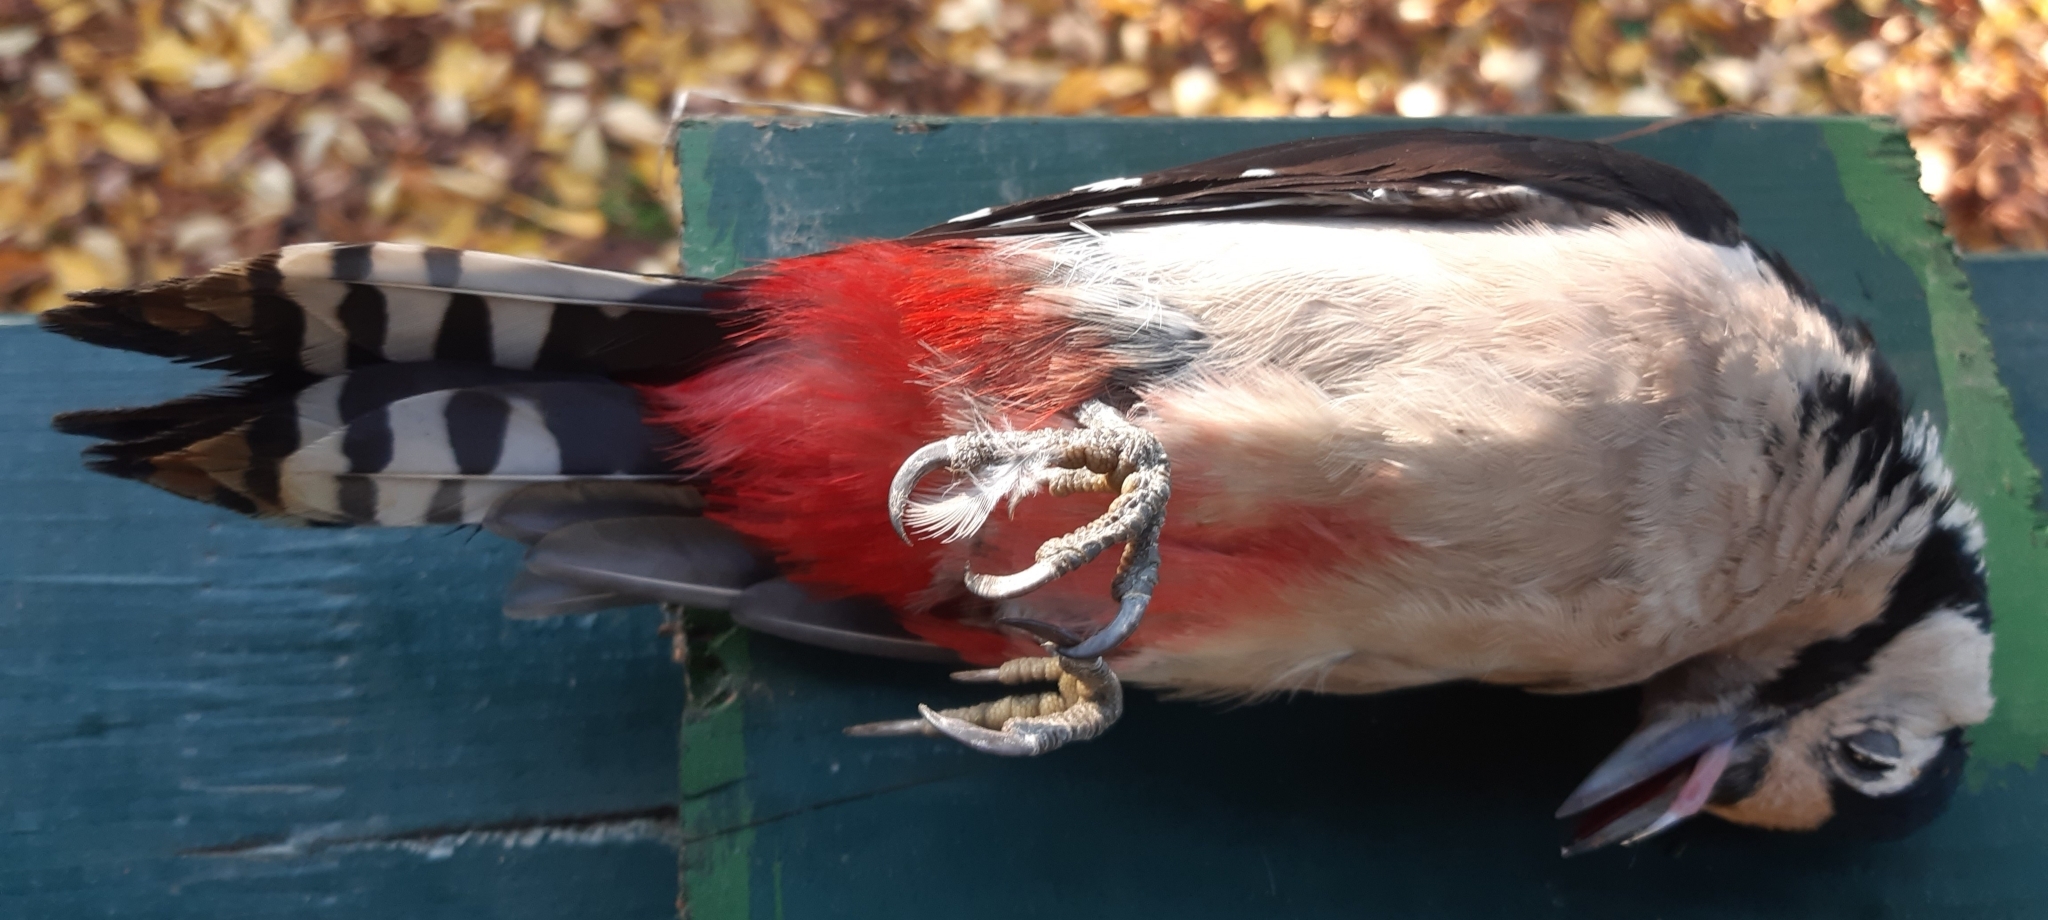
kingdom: Animalia
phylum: Chordata
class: Aves
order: Piciformes
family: Picidae
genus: Dendrocopos
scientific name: Dendrocopos major
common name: Great spotted woodpecker
